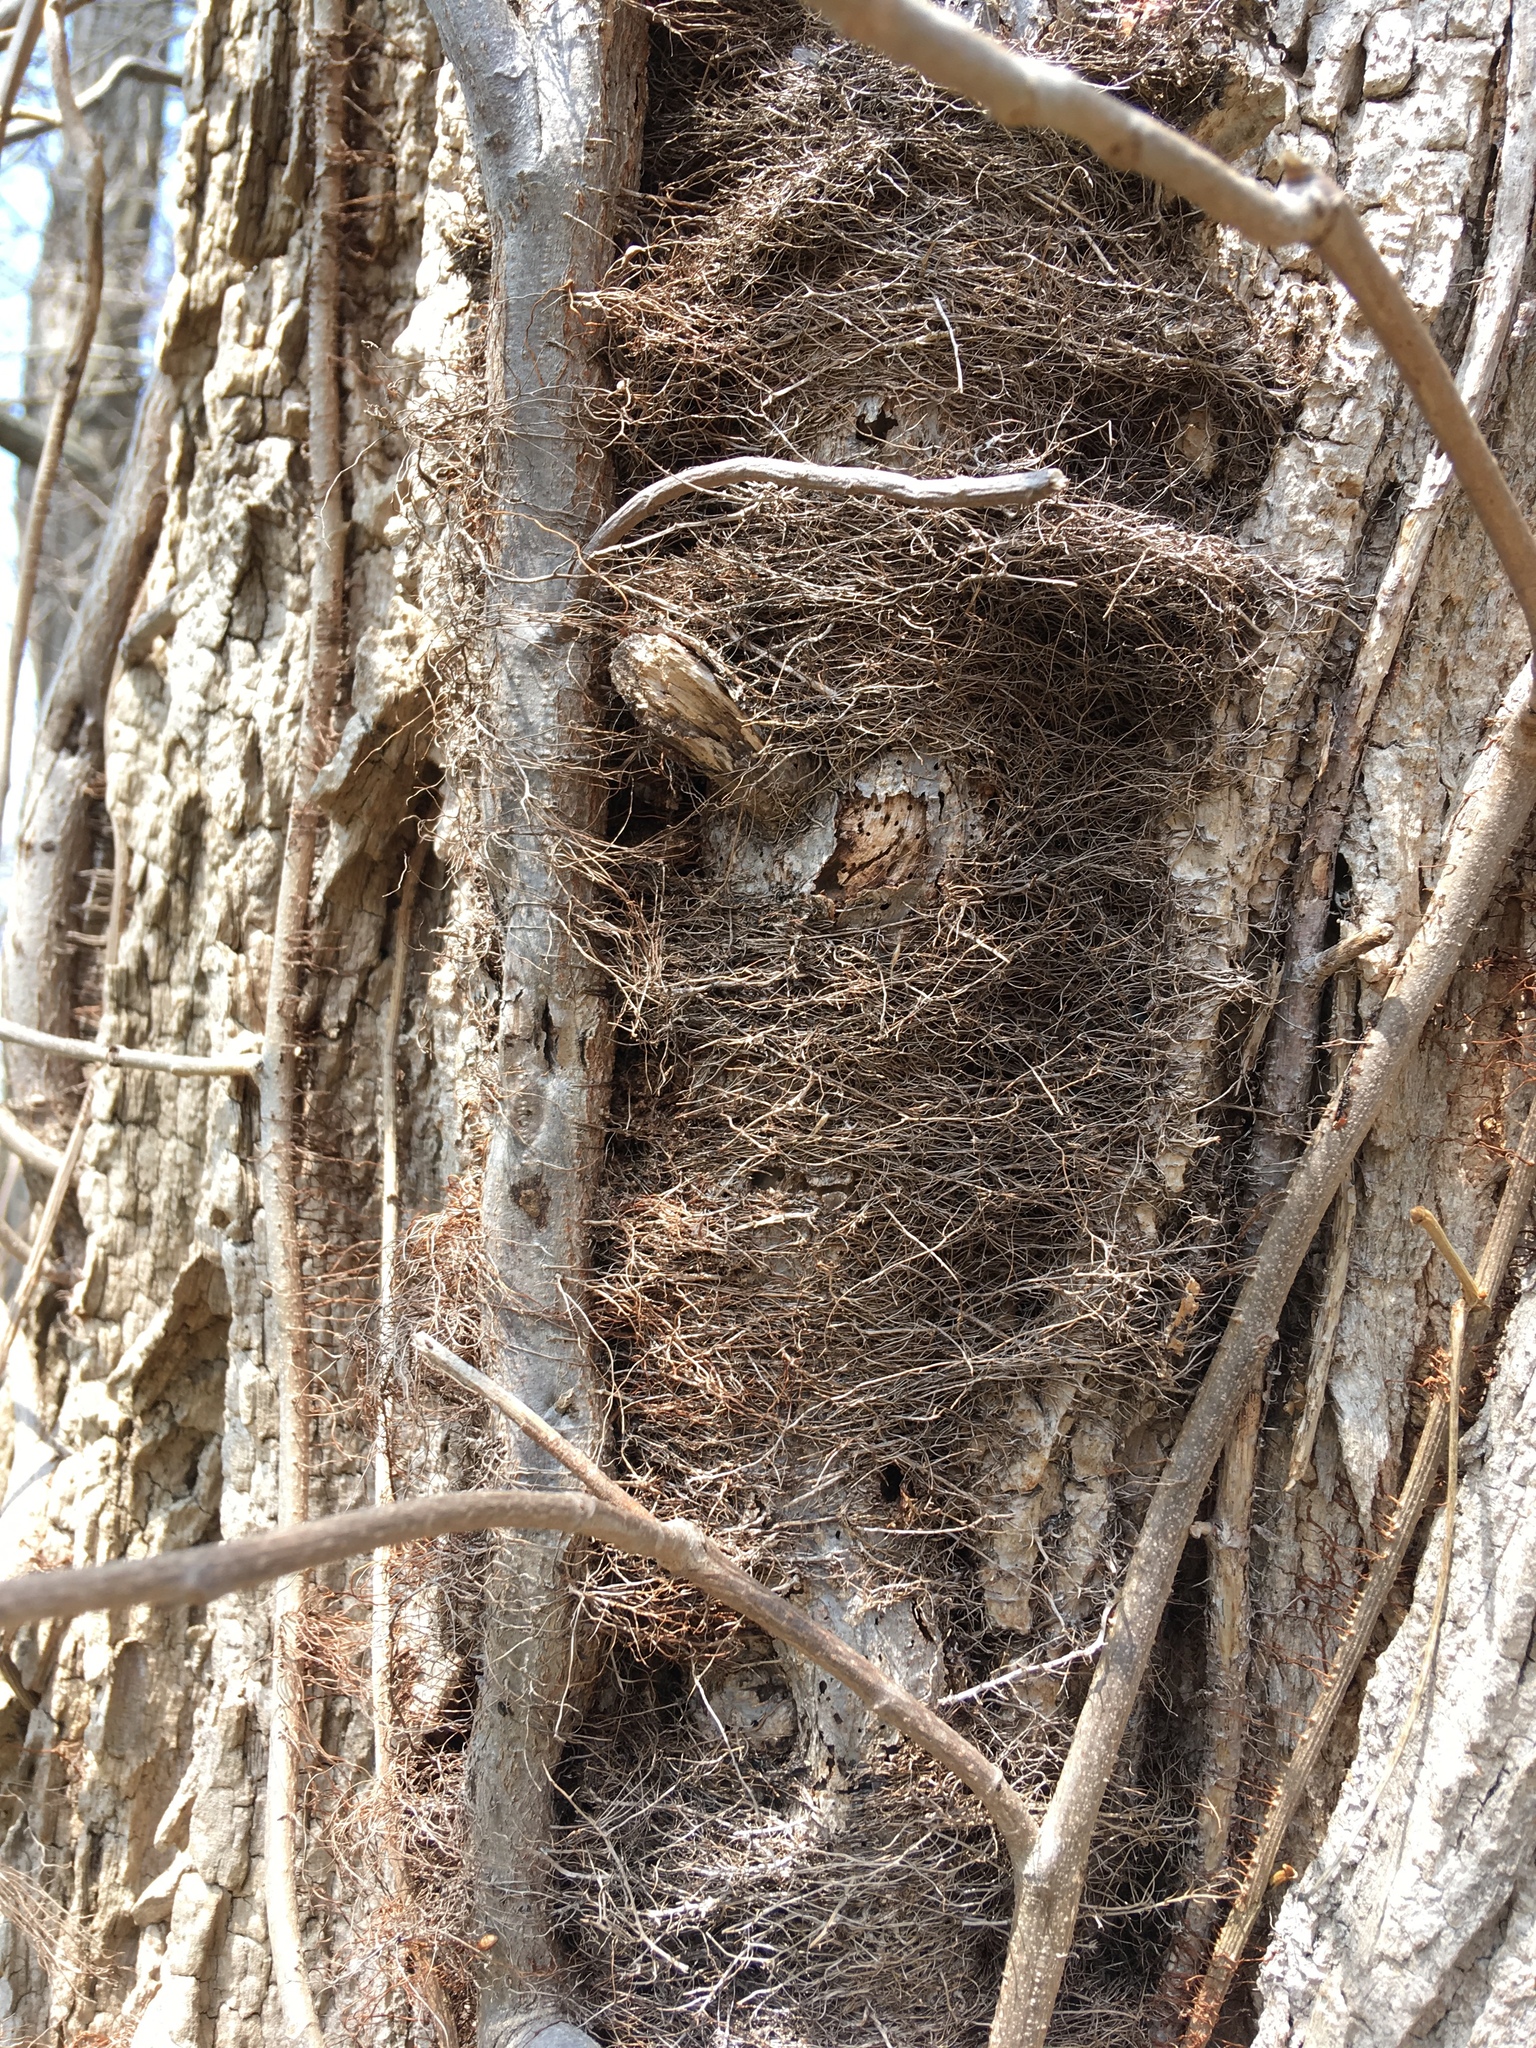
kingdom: Plantae
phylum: Tracheophyta
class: Magnoliopsida
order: Sapindales
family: Anacardiaceae
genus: Toxicodendron
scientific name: Toxicodendron radicans
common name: Poison ivy
